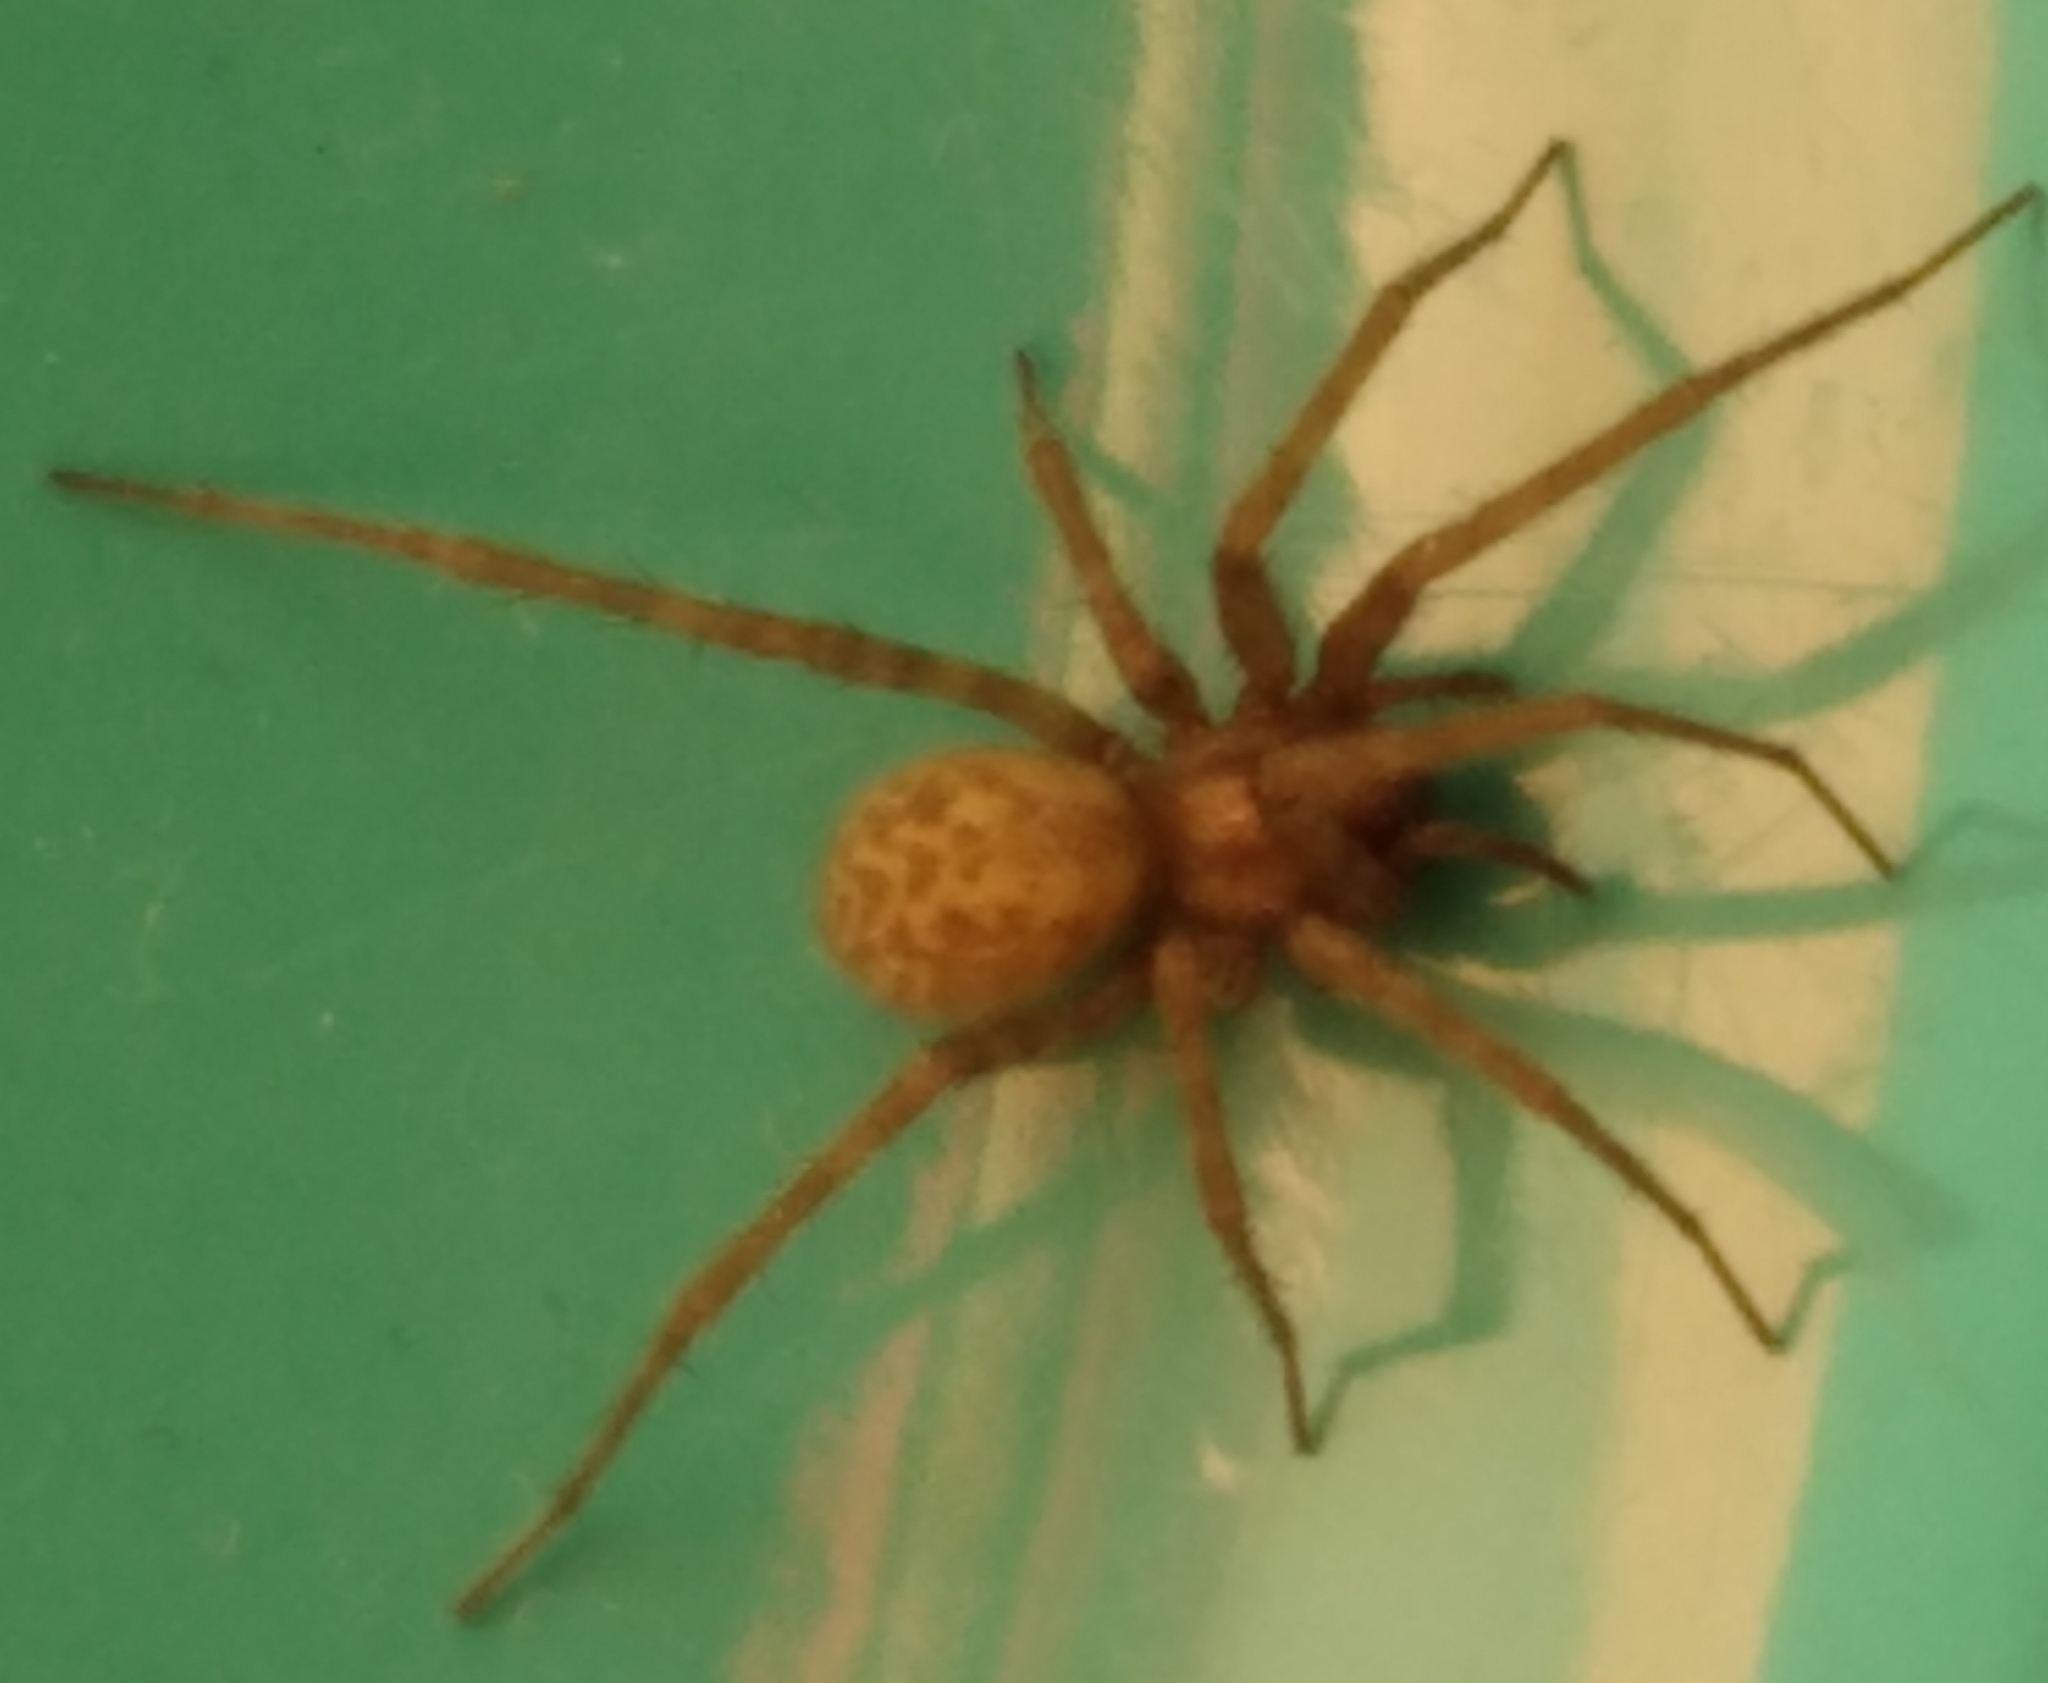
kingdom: Animalia
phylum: Arthropoda
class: Arachnida
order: Araneae
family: Agelenidae
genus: Tegenaria
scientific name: Tegenaria domestica
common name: Barn funnel weaver
